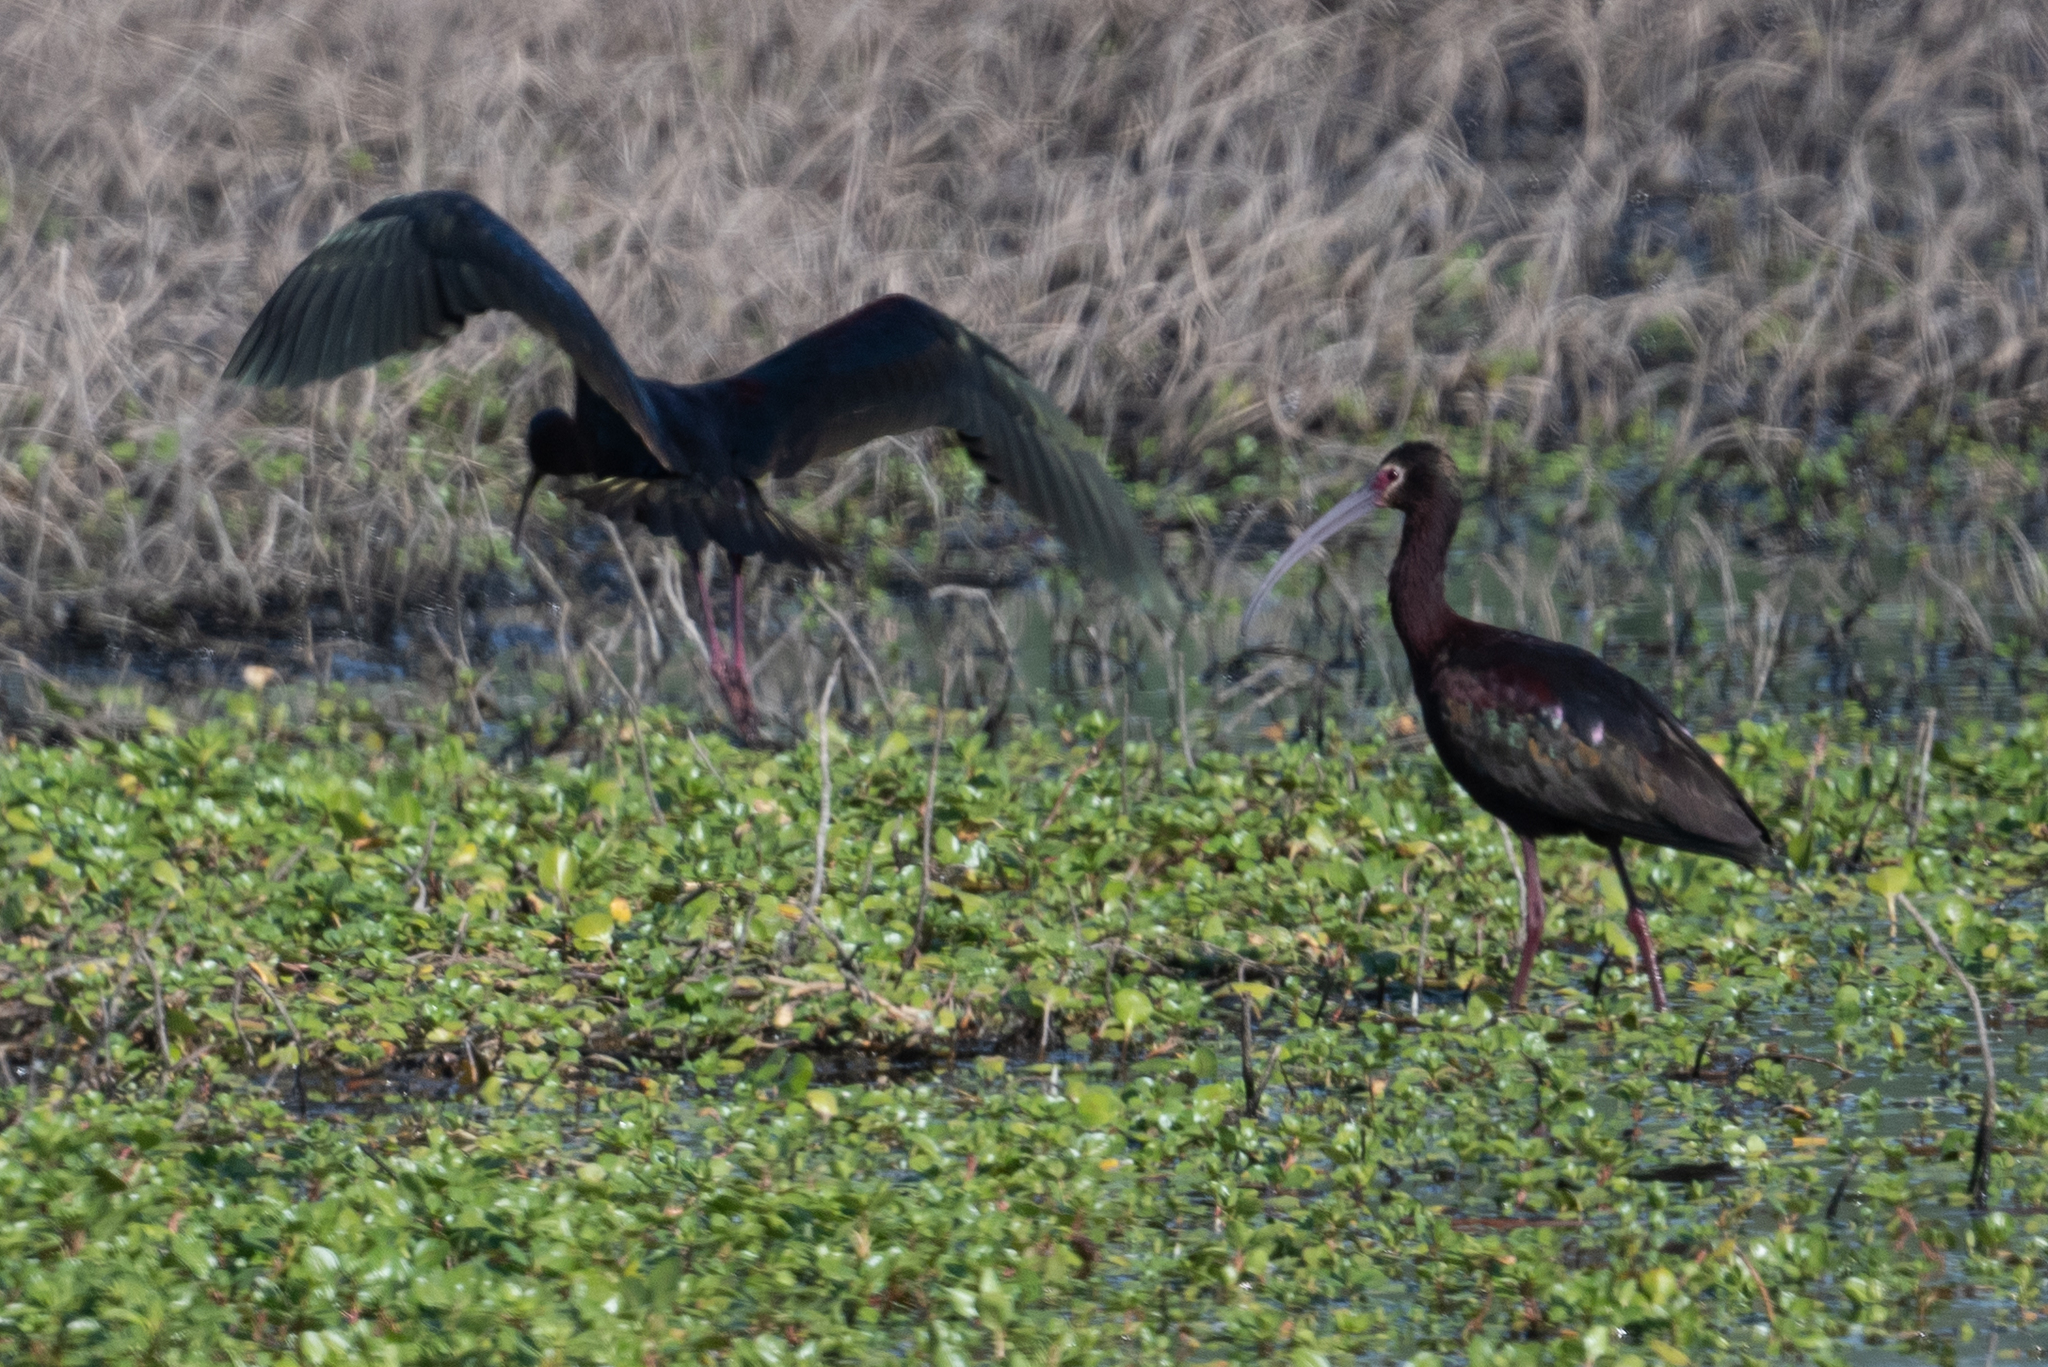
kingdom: Animalia
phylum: Chordata
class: Aves
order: Pelecaniformes
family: Threskiornithidae
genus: Plegadis
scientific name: Plegadis chihi
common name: White-faced ibis
